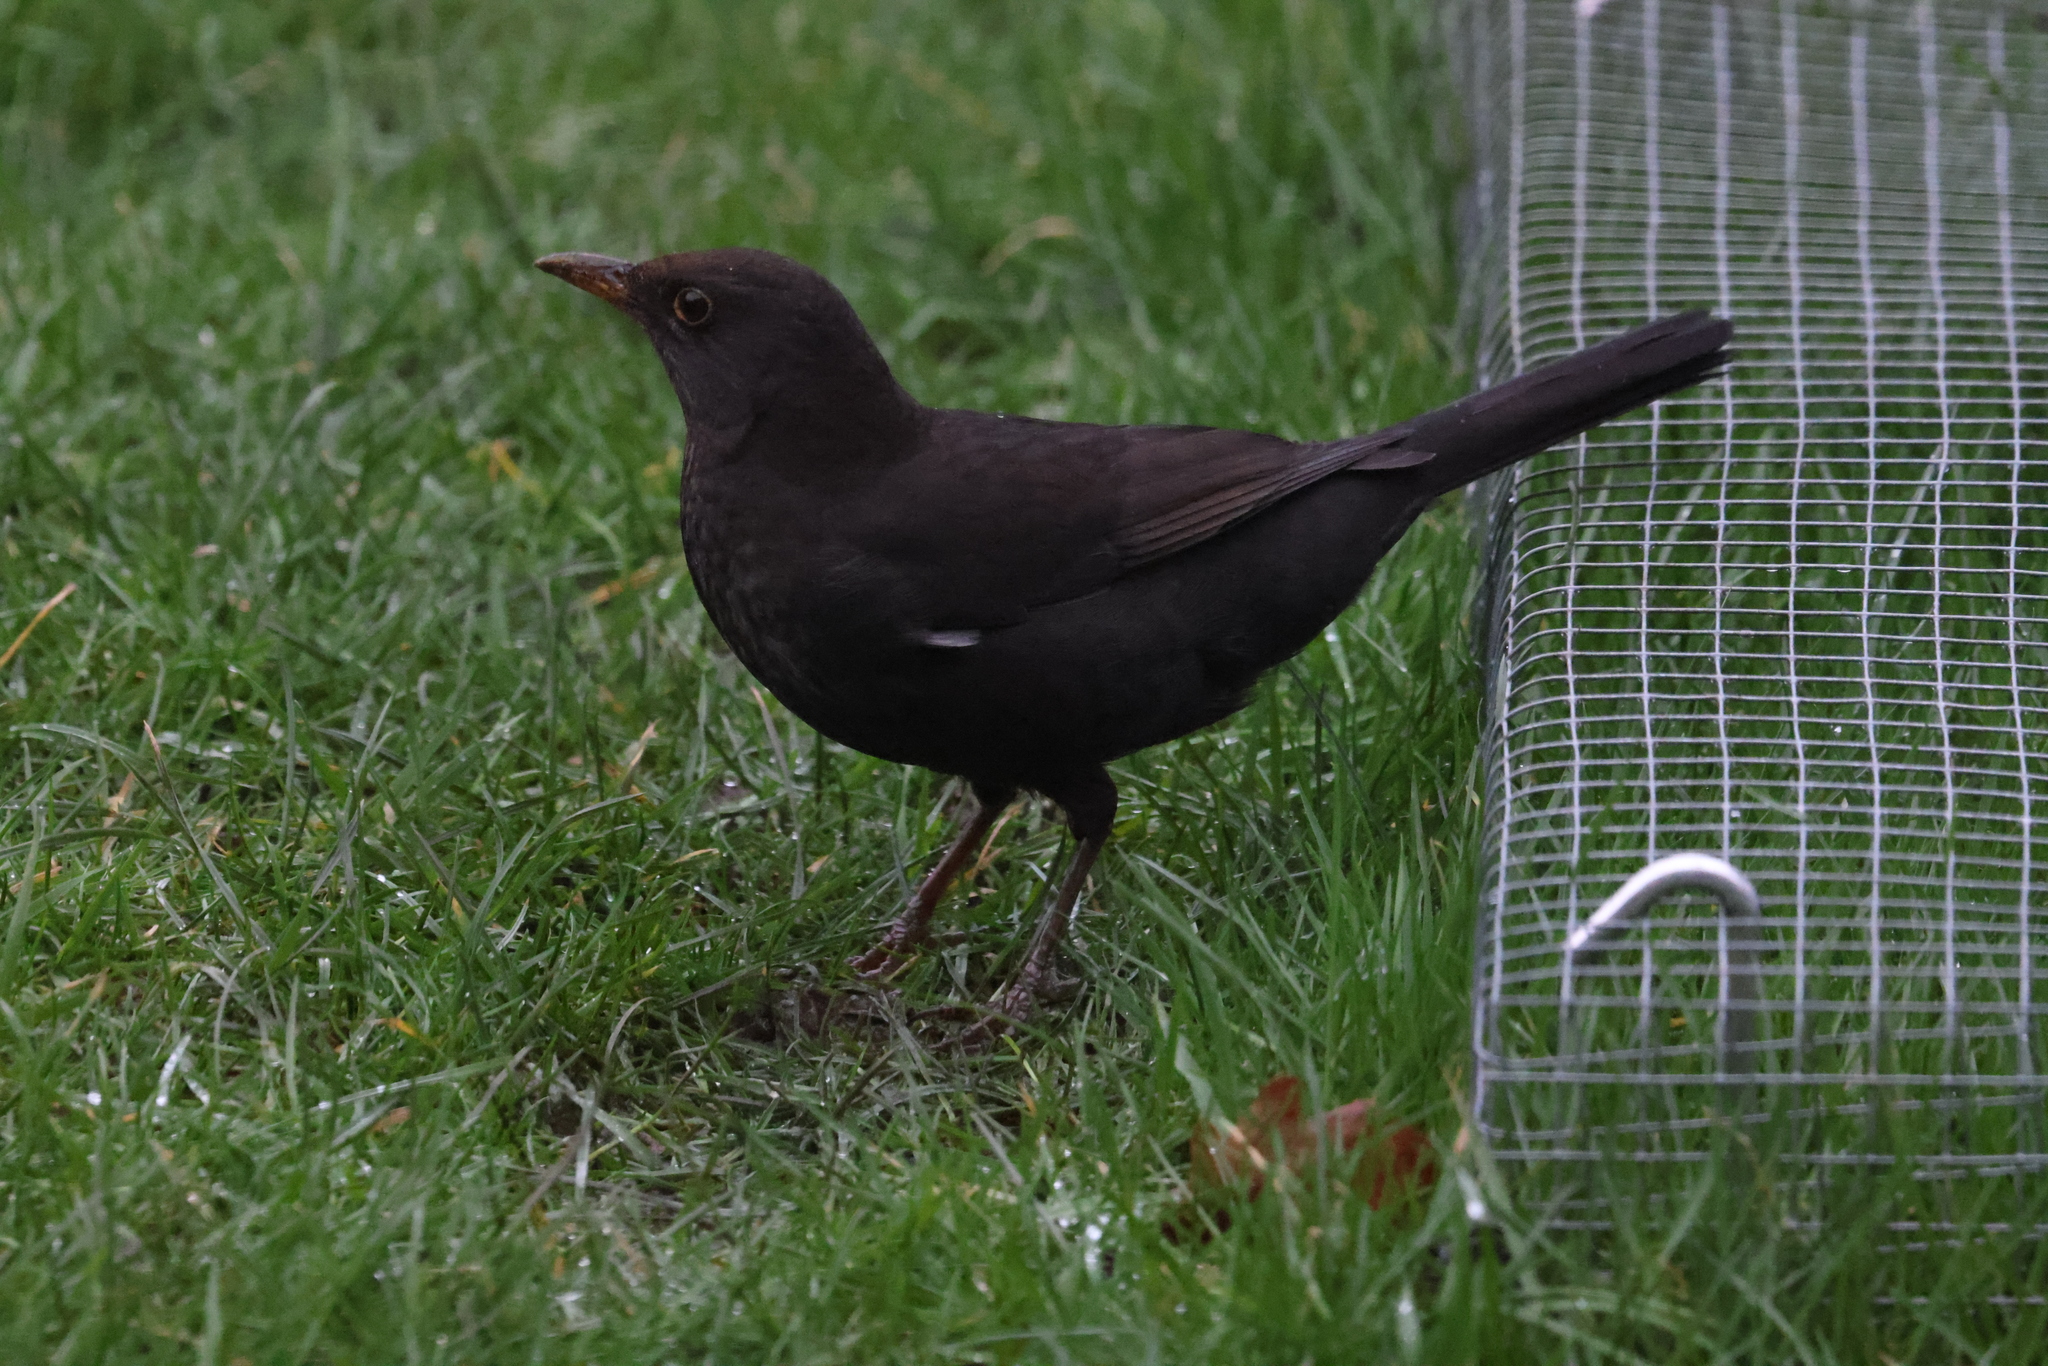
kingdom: Animalia
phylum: Chordata
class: Aves
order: Passeriformes
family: Turdidae
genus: Turdus
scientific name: Turdus merula
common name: Common blackbird
